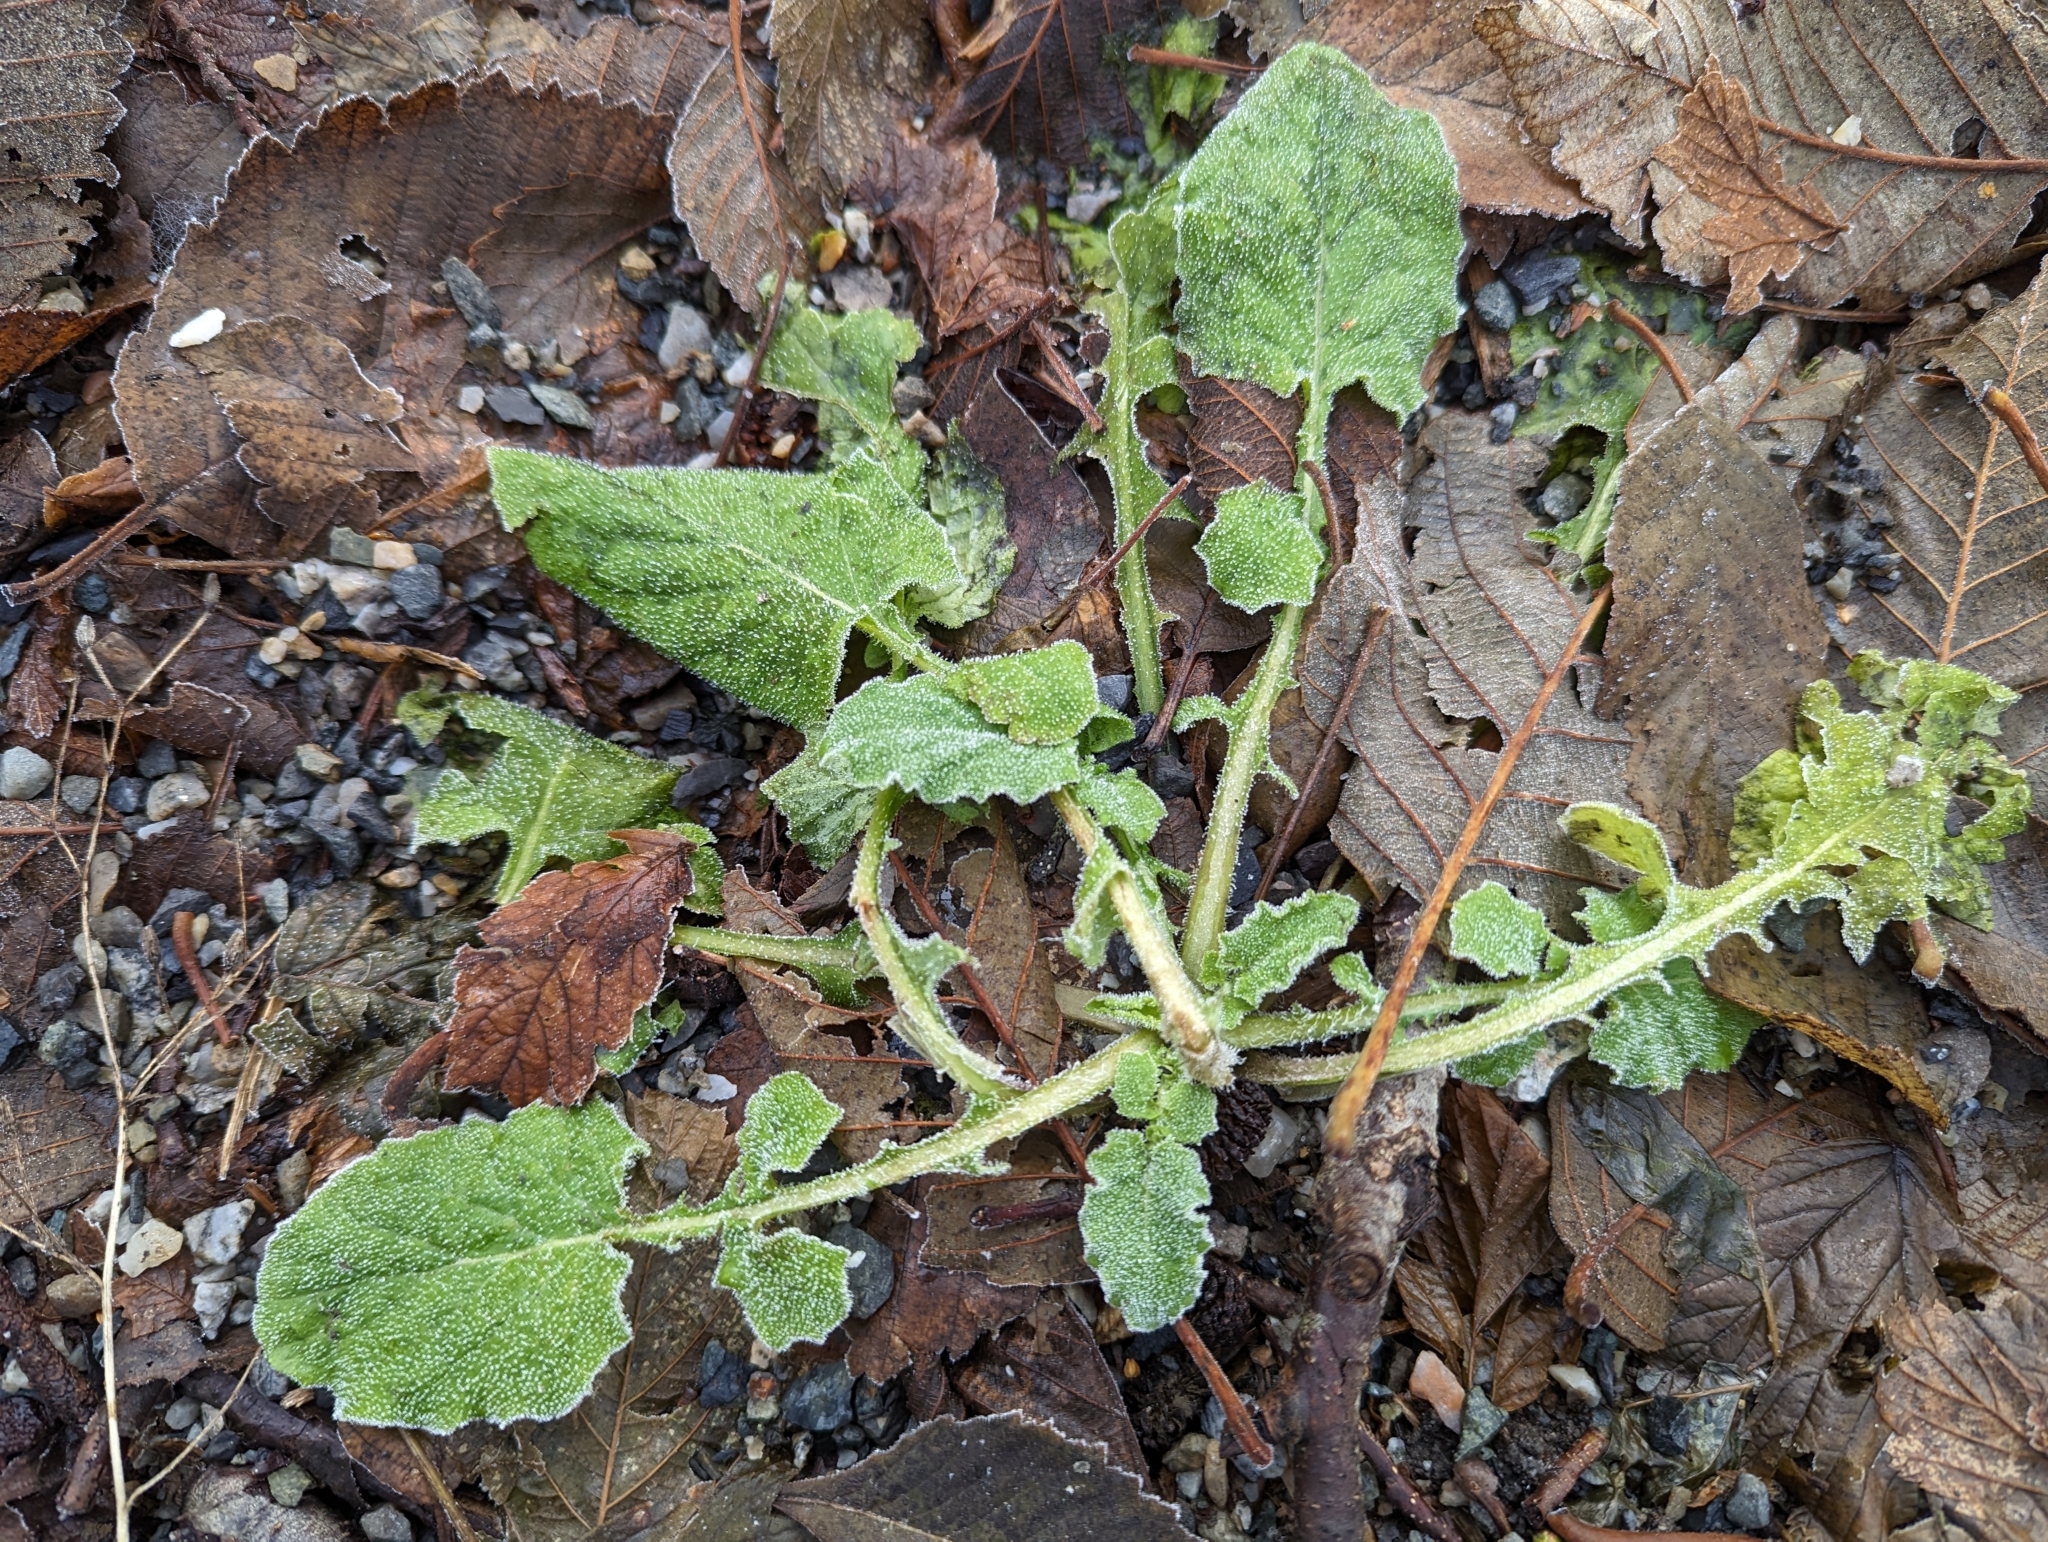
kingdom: Plantae
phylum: Tracheophyta
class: Magnoliopsida
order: Asterales
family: Asteraceae
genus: Lapsana
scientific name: Lapsana communis
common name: Nipplewort
